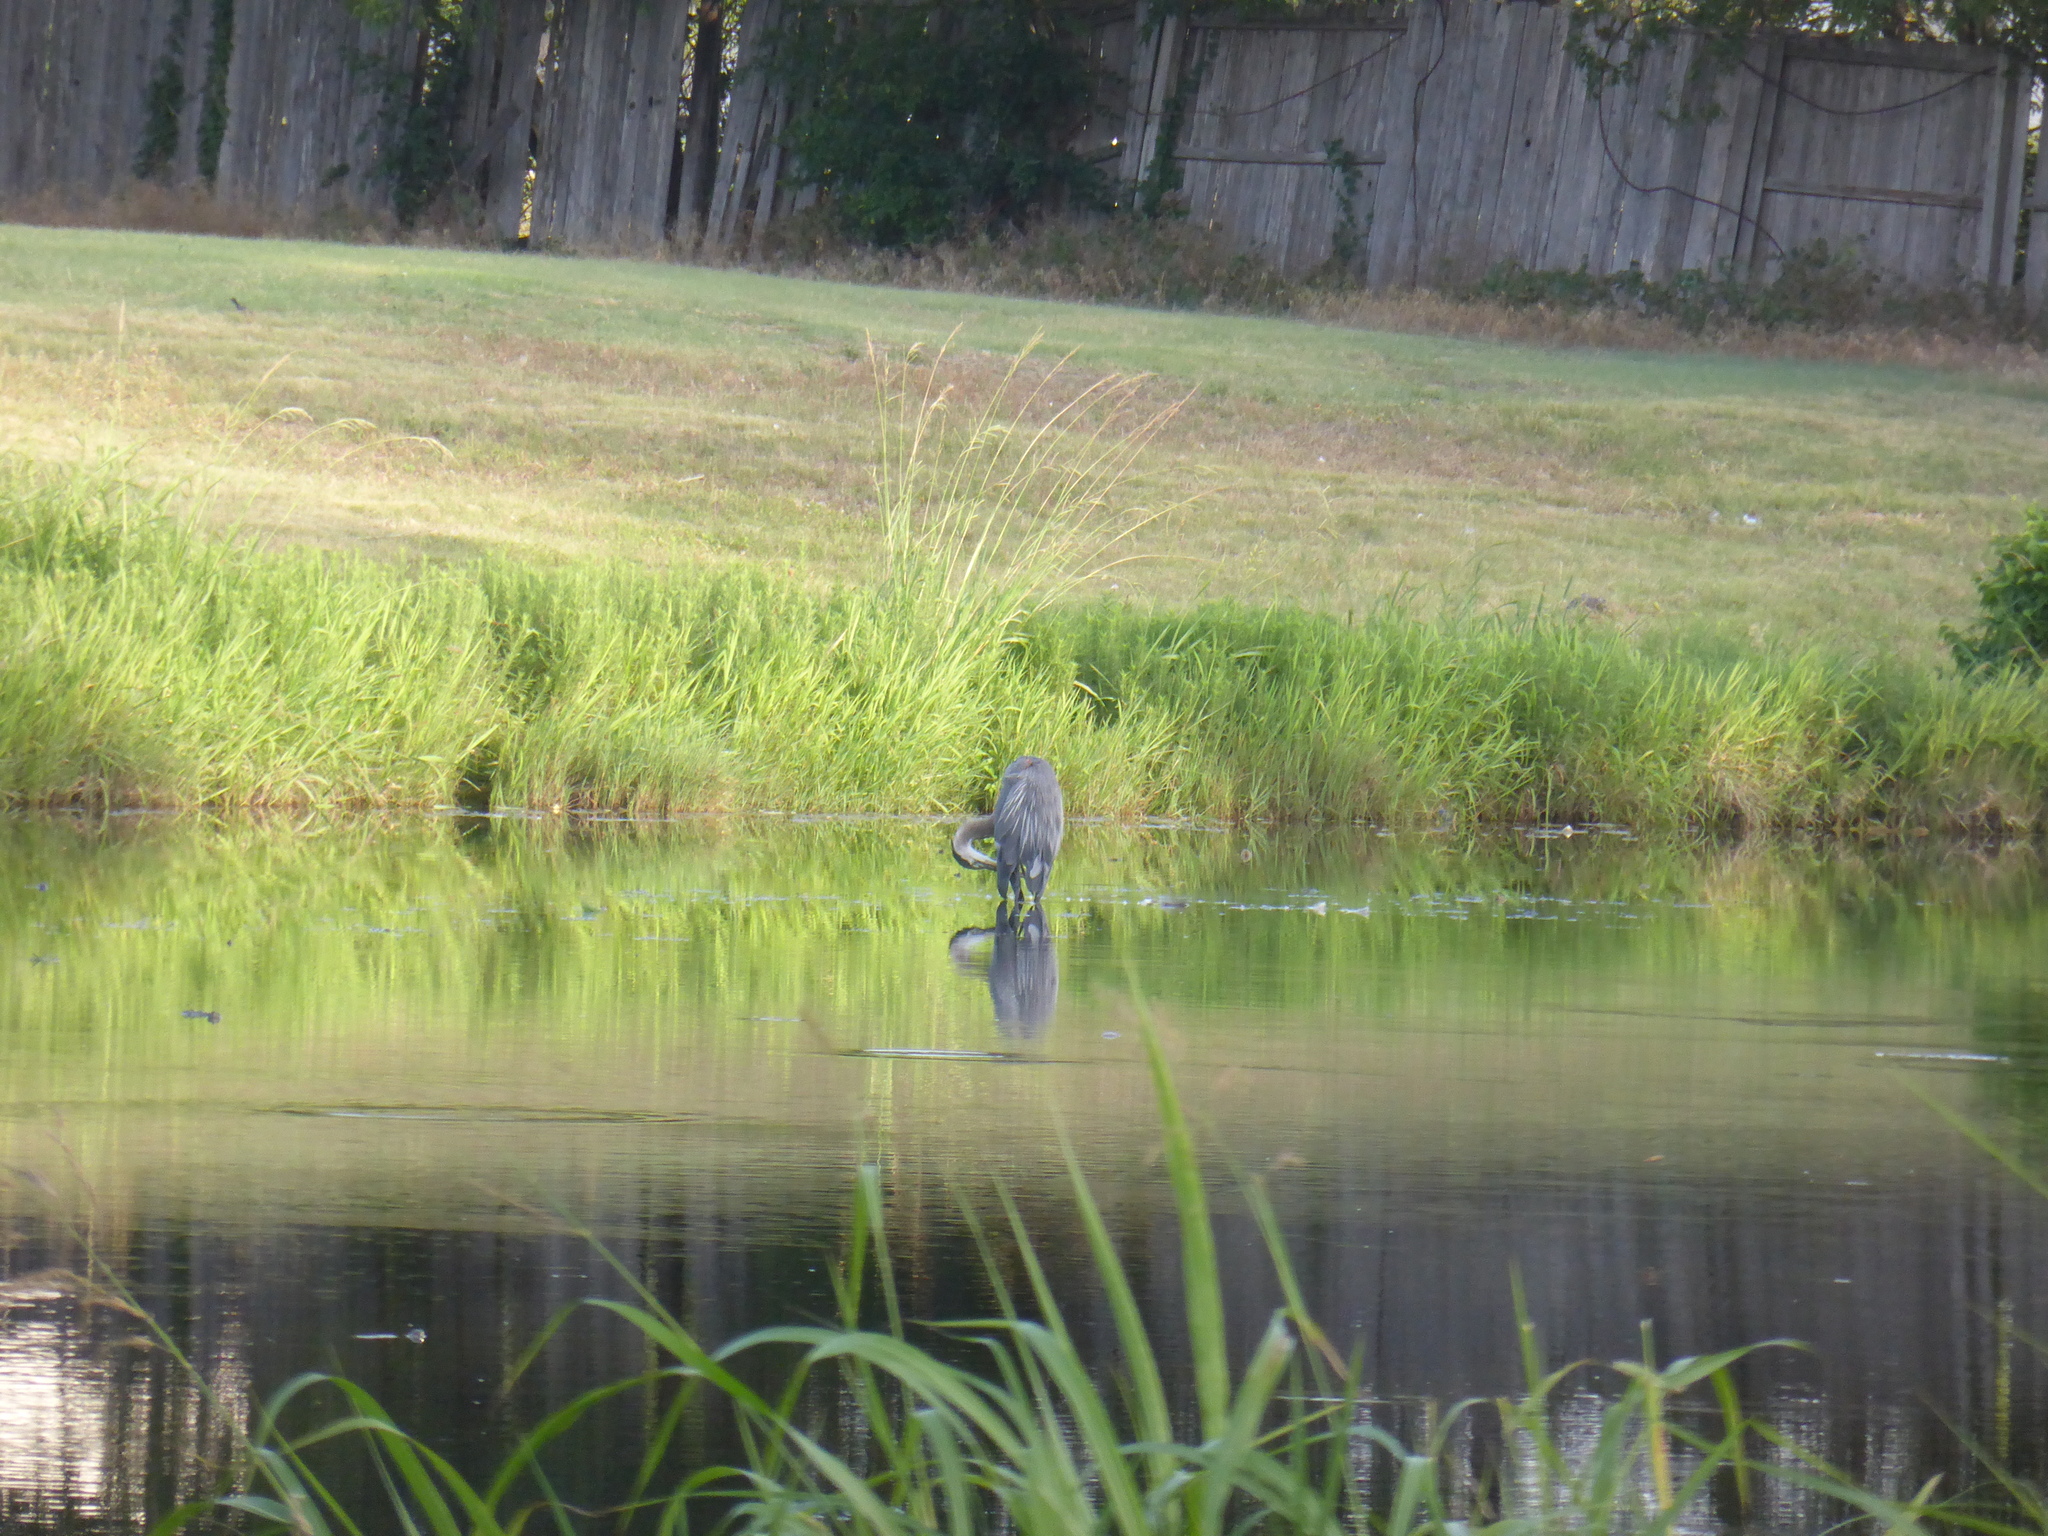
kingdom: Animalia
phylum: Chordata
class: Aves
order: Pelecaniformes
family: Ardeidae
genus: Ardea
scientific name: Ardea herodias
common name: Great blue heron
